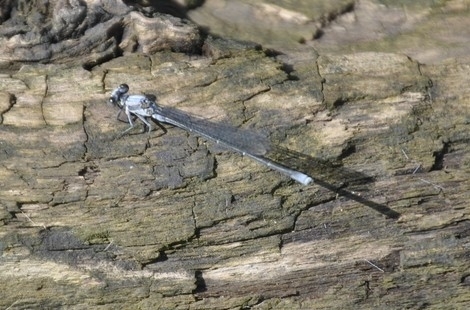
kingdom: Animalia
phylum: Arthropoda
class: Insecta
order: Odonata
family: Coenagrionidae
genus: Argia
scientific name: Argia moesta
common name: Powdered dancer
